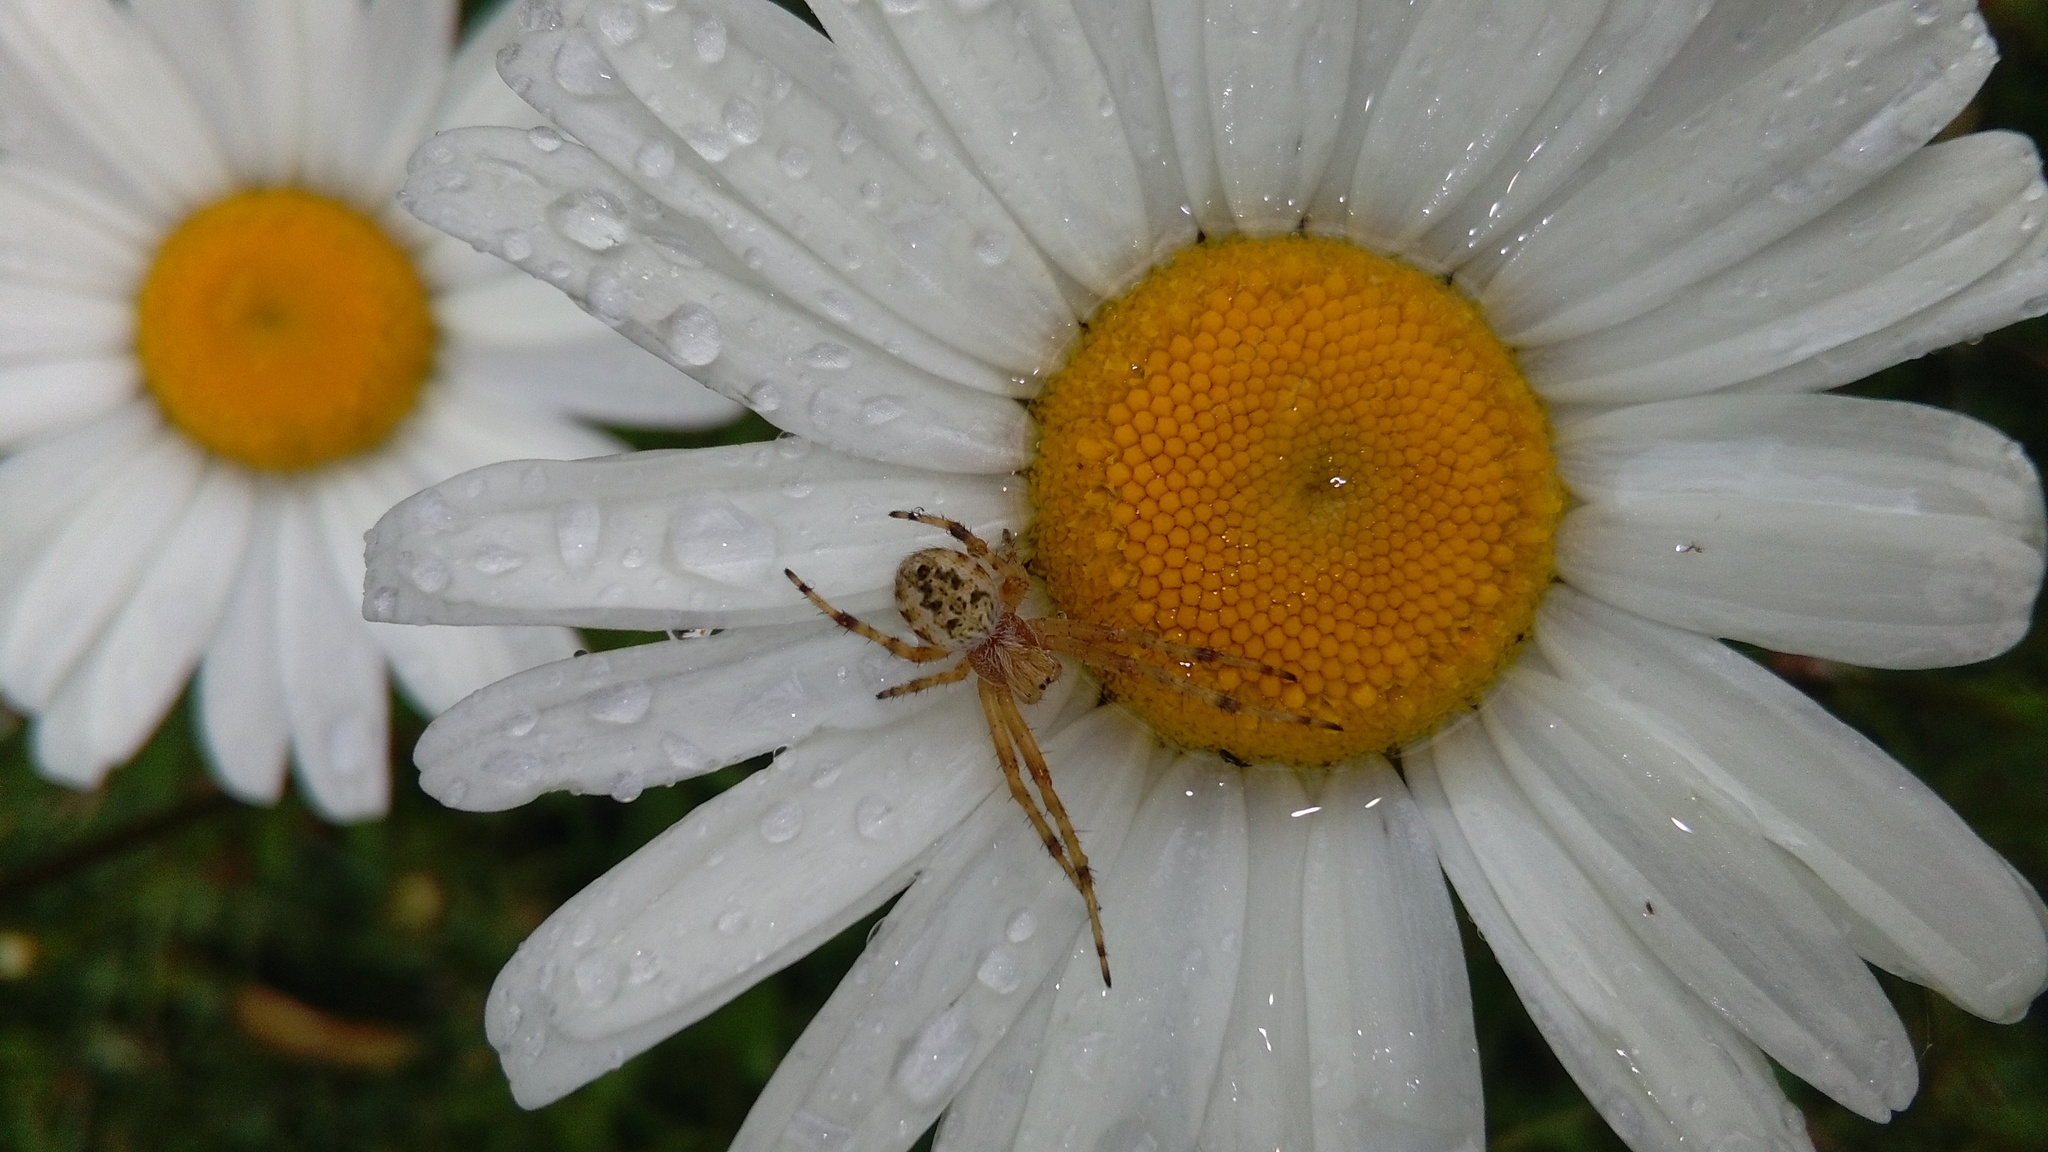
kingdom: Animalia
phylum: Arthropoda
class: Arachnida
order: Araneae
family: Araneidae
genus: Salsa
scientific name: Salsa fuliginata
